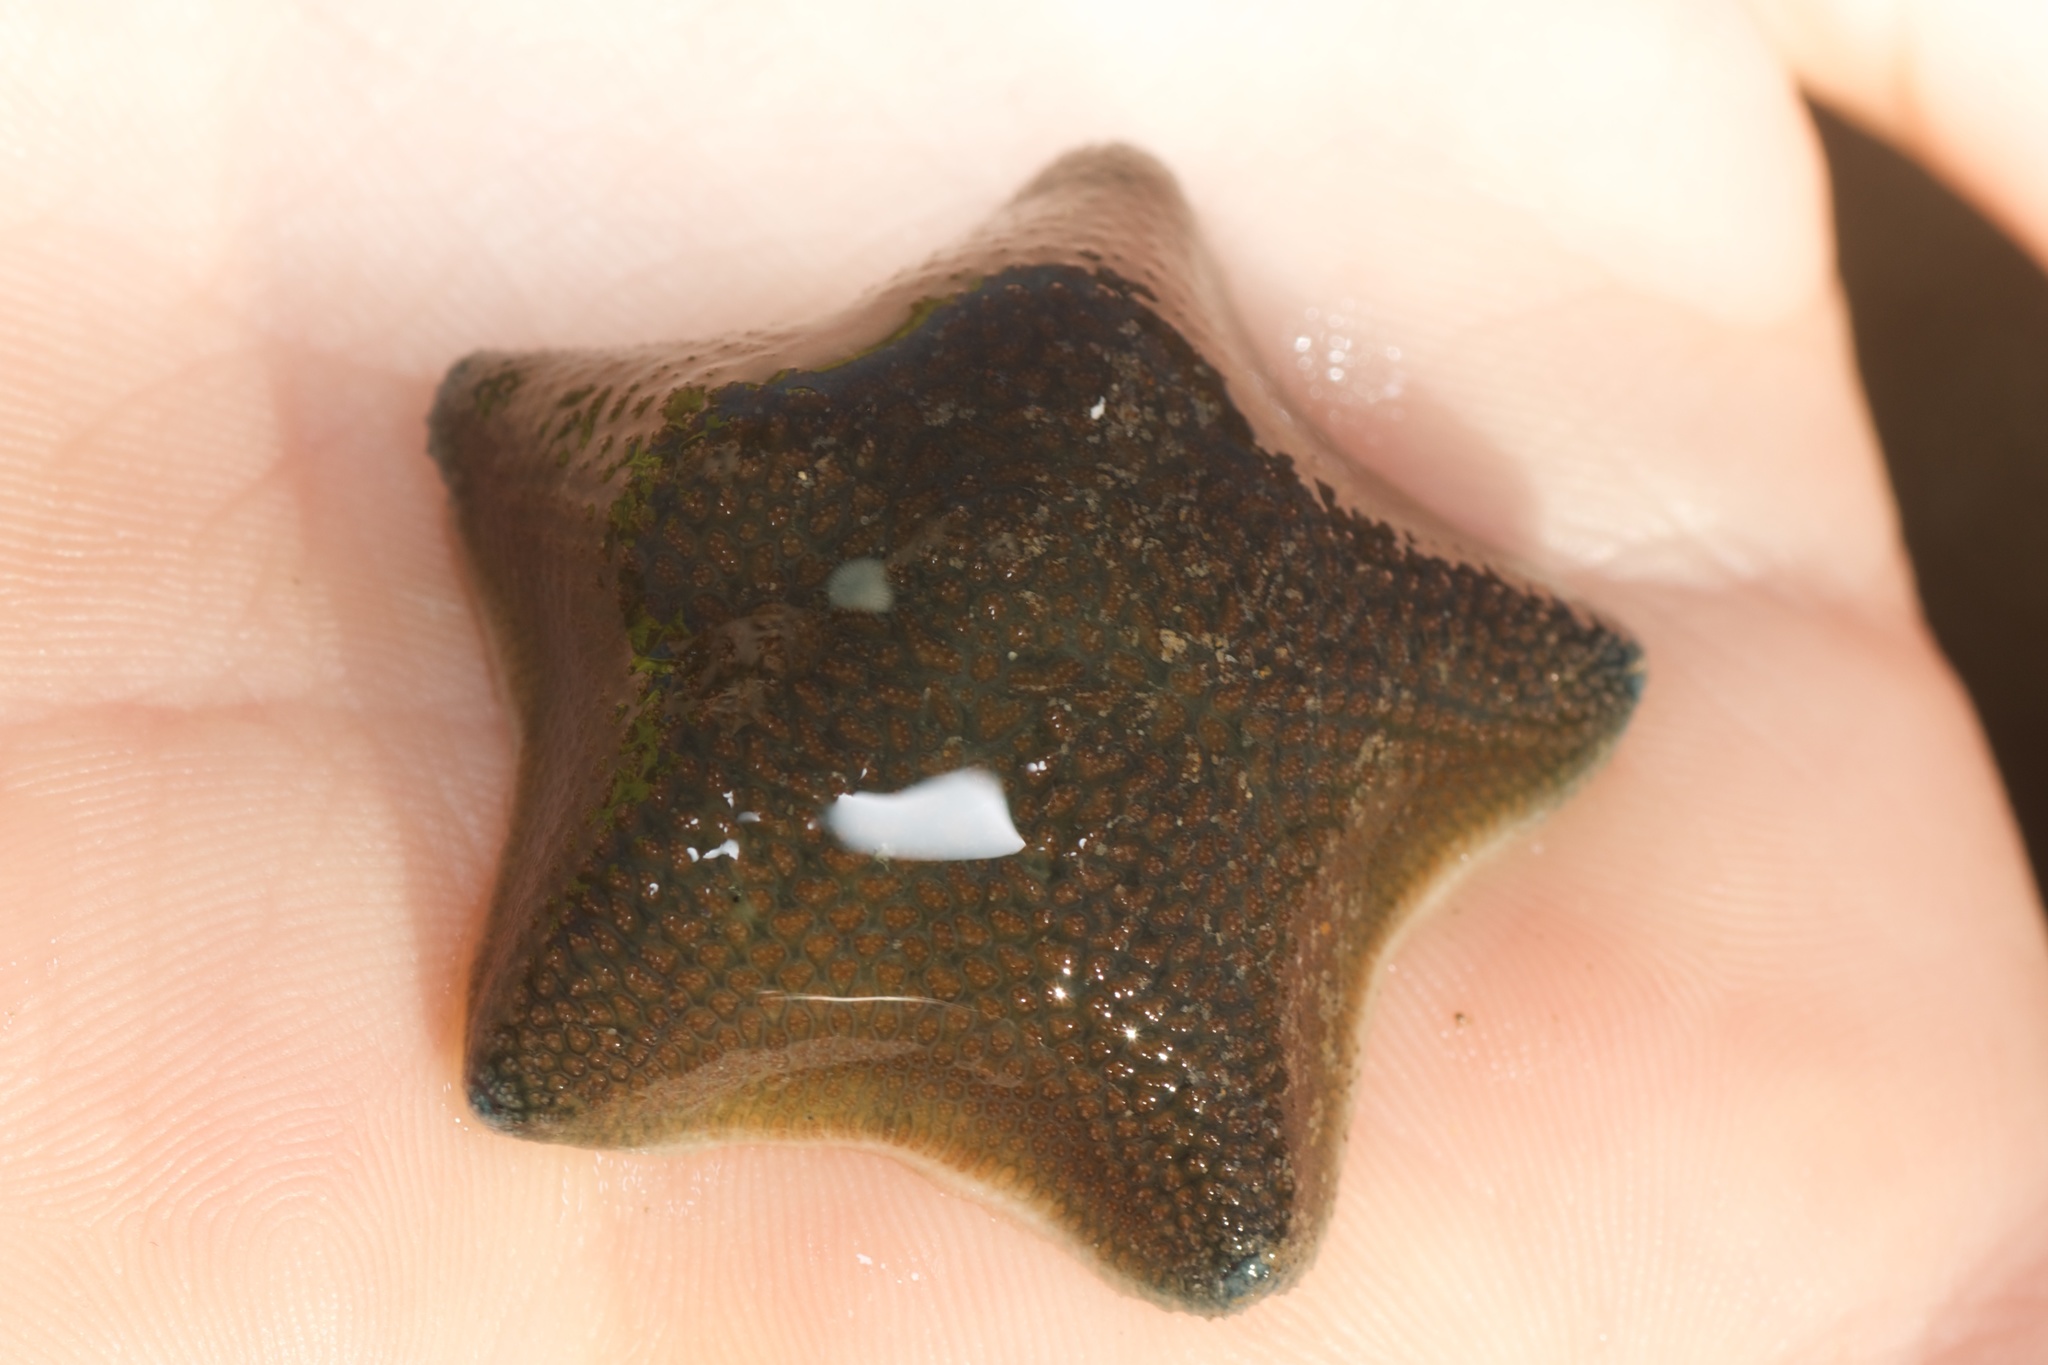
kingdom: Animalia
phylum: Echinodermata
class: Asteroidea
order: Valvatida
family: Asterinidae
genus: Patiriella
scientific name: Patiriella regularis
